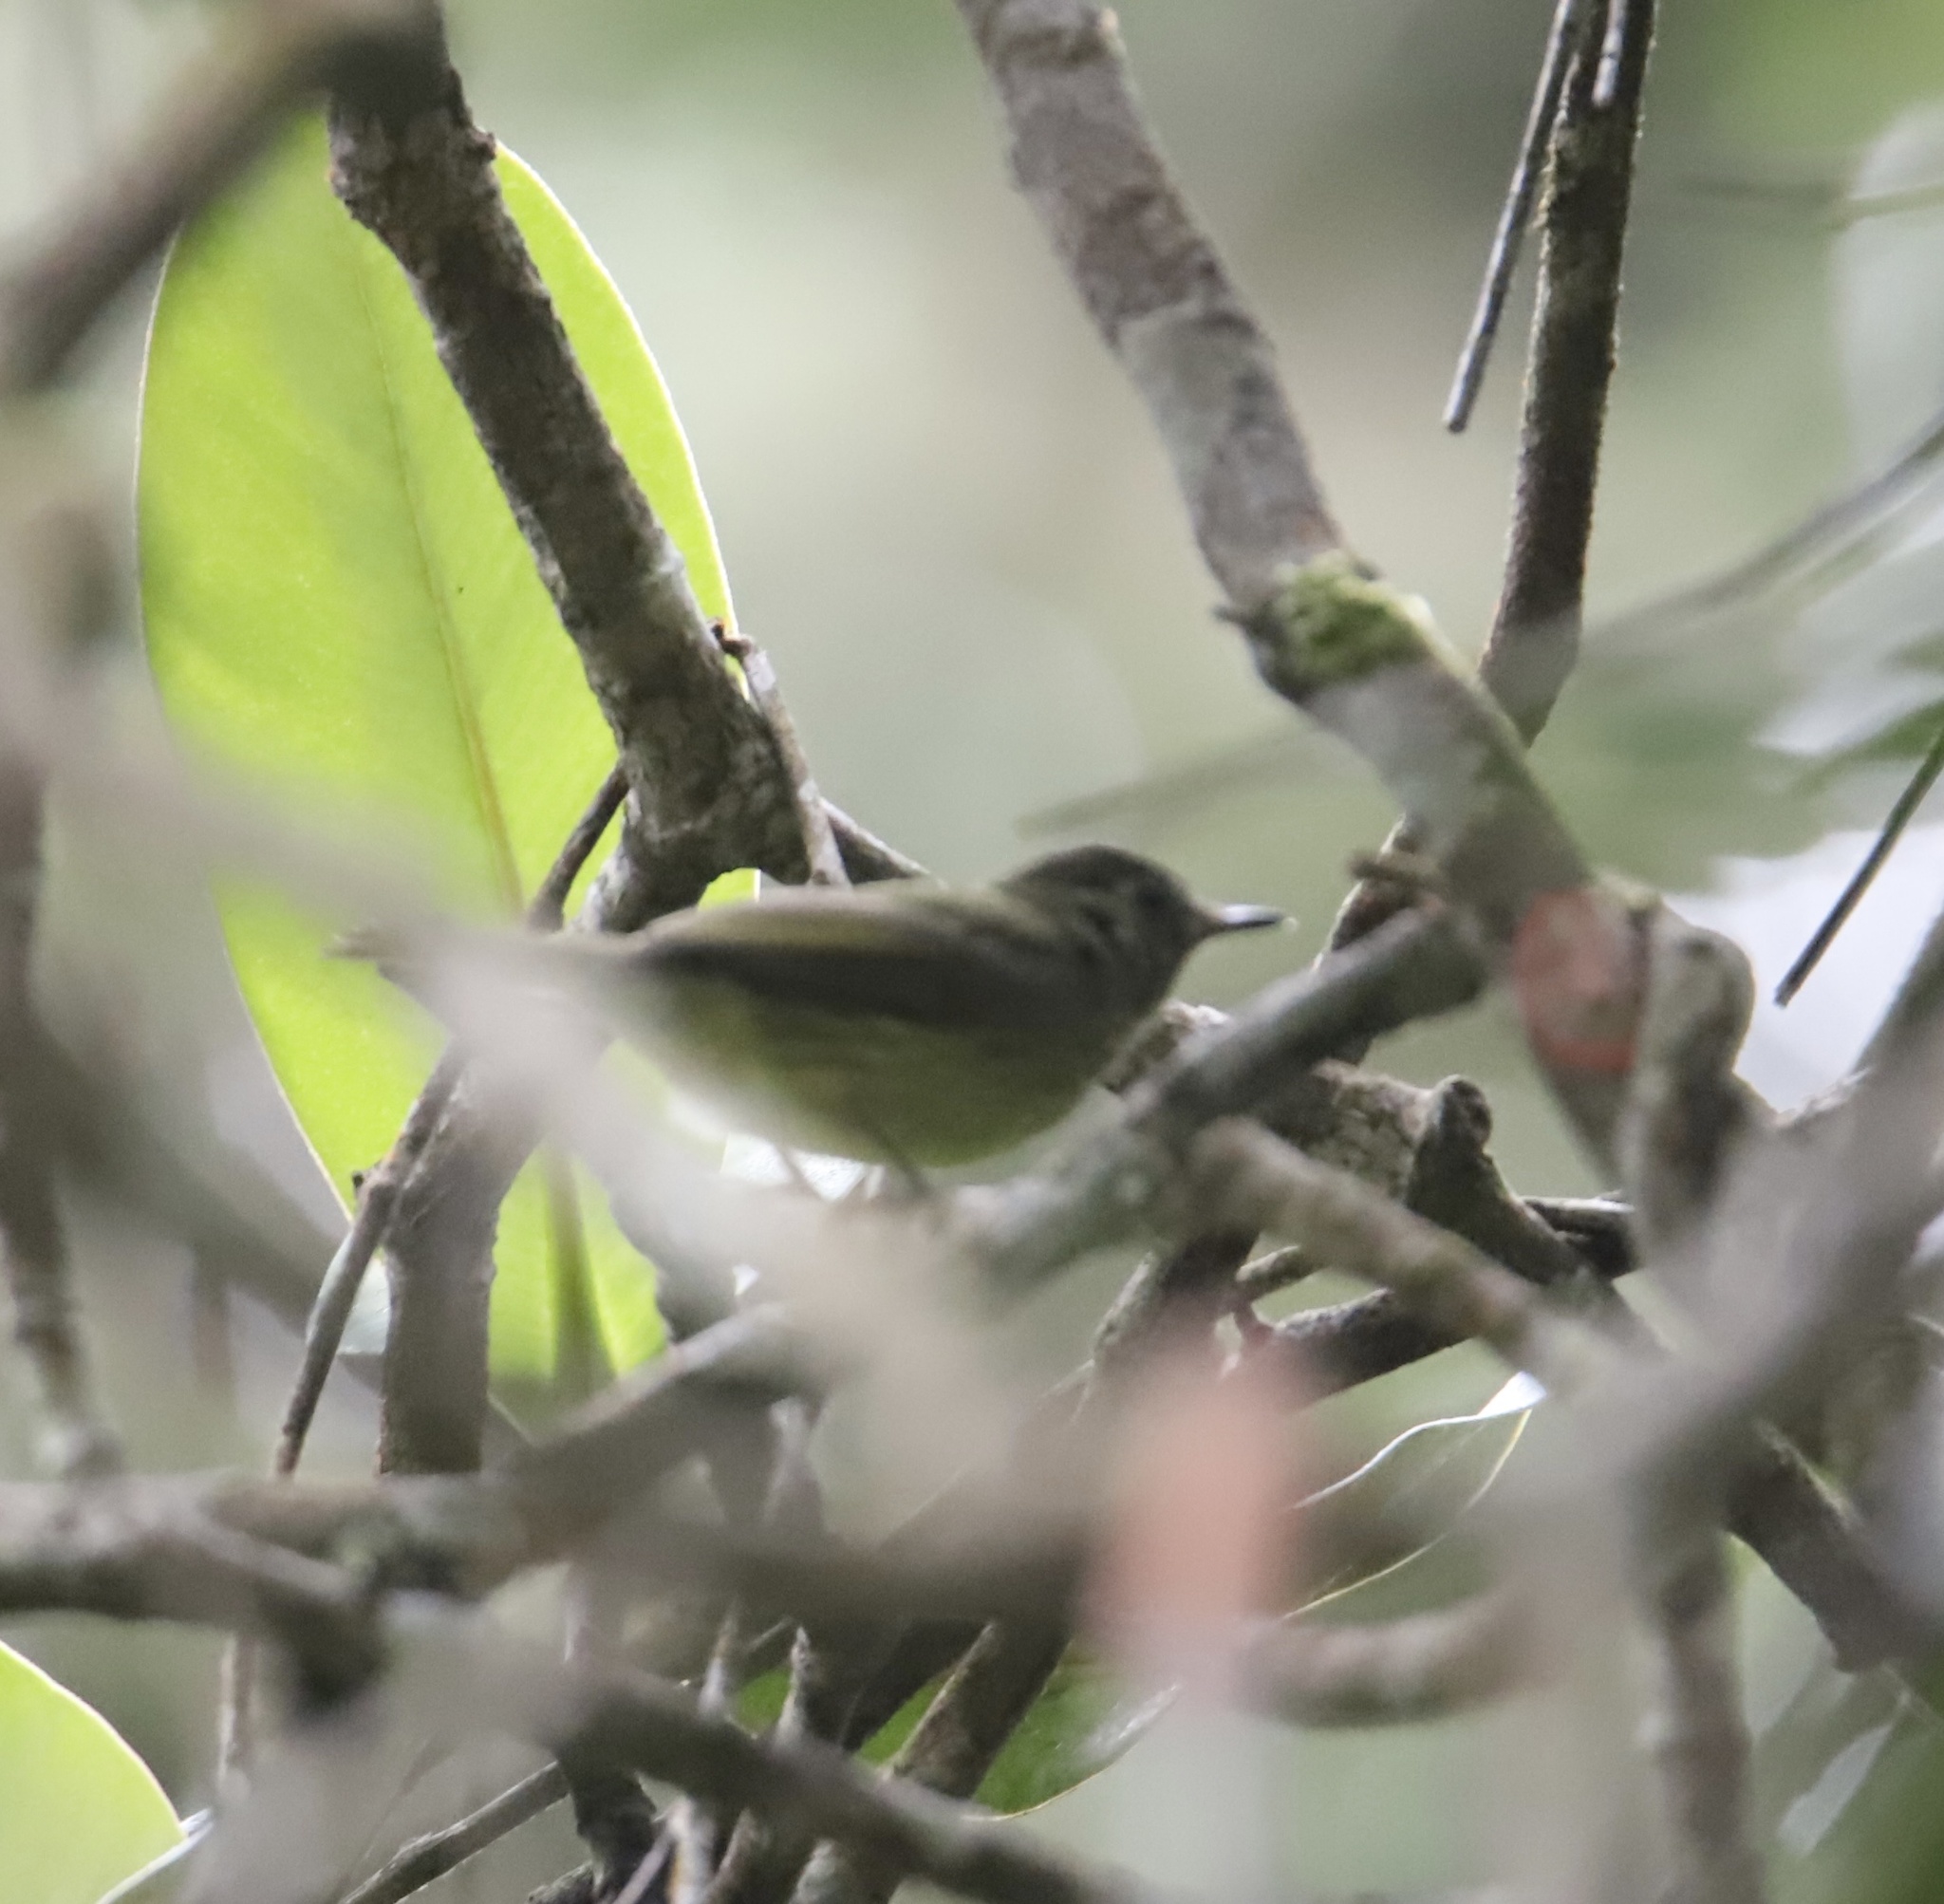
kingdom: Animalia
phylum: Chordata
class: Aves
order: Passeriformes
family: Tyrannidae
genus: Mionectes
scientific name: Mionectes galbinus
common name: Olive-striped flycatcher
